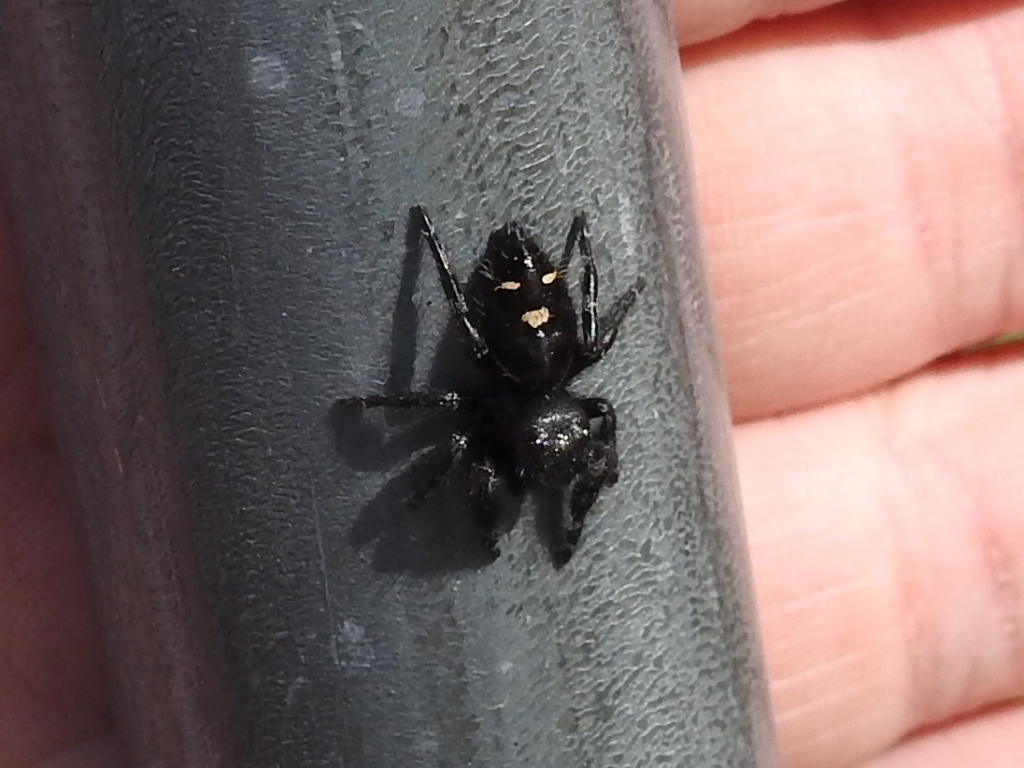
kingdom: Animalia
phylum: Arthropoda
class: Arachnida
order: Araneae
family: Salticidae
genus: Phidippus
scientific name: Phidippus audax
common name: Bold jumper
